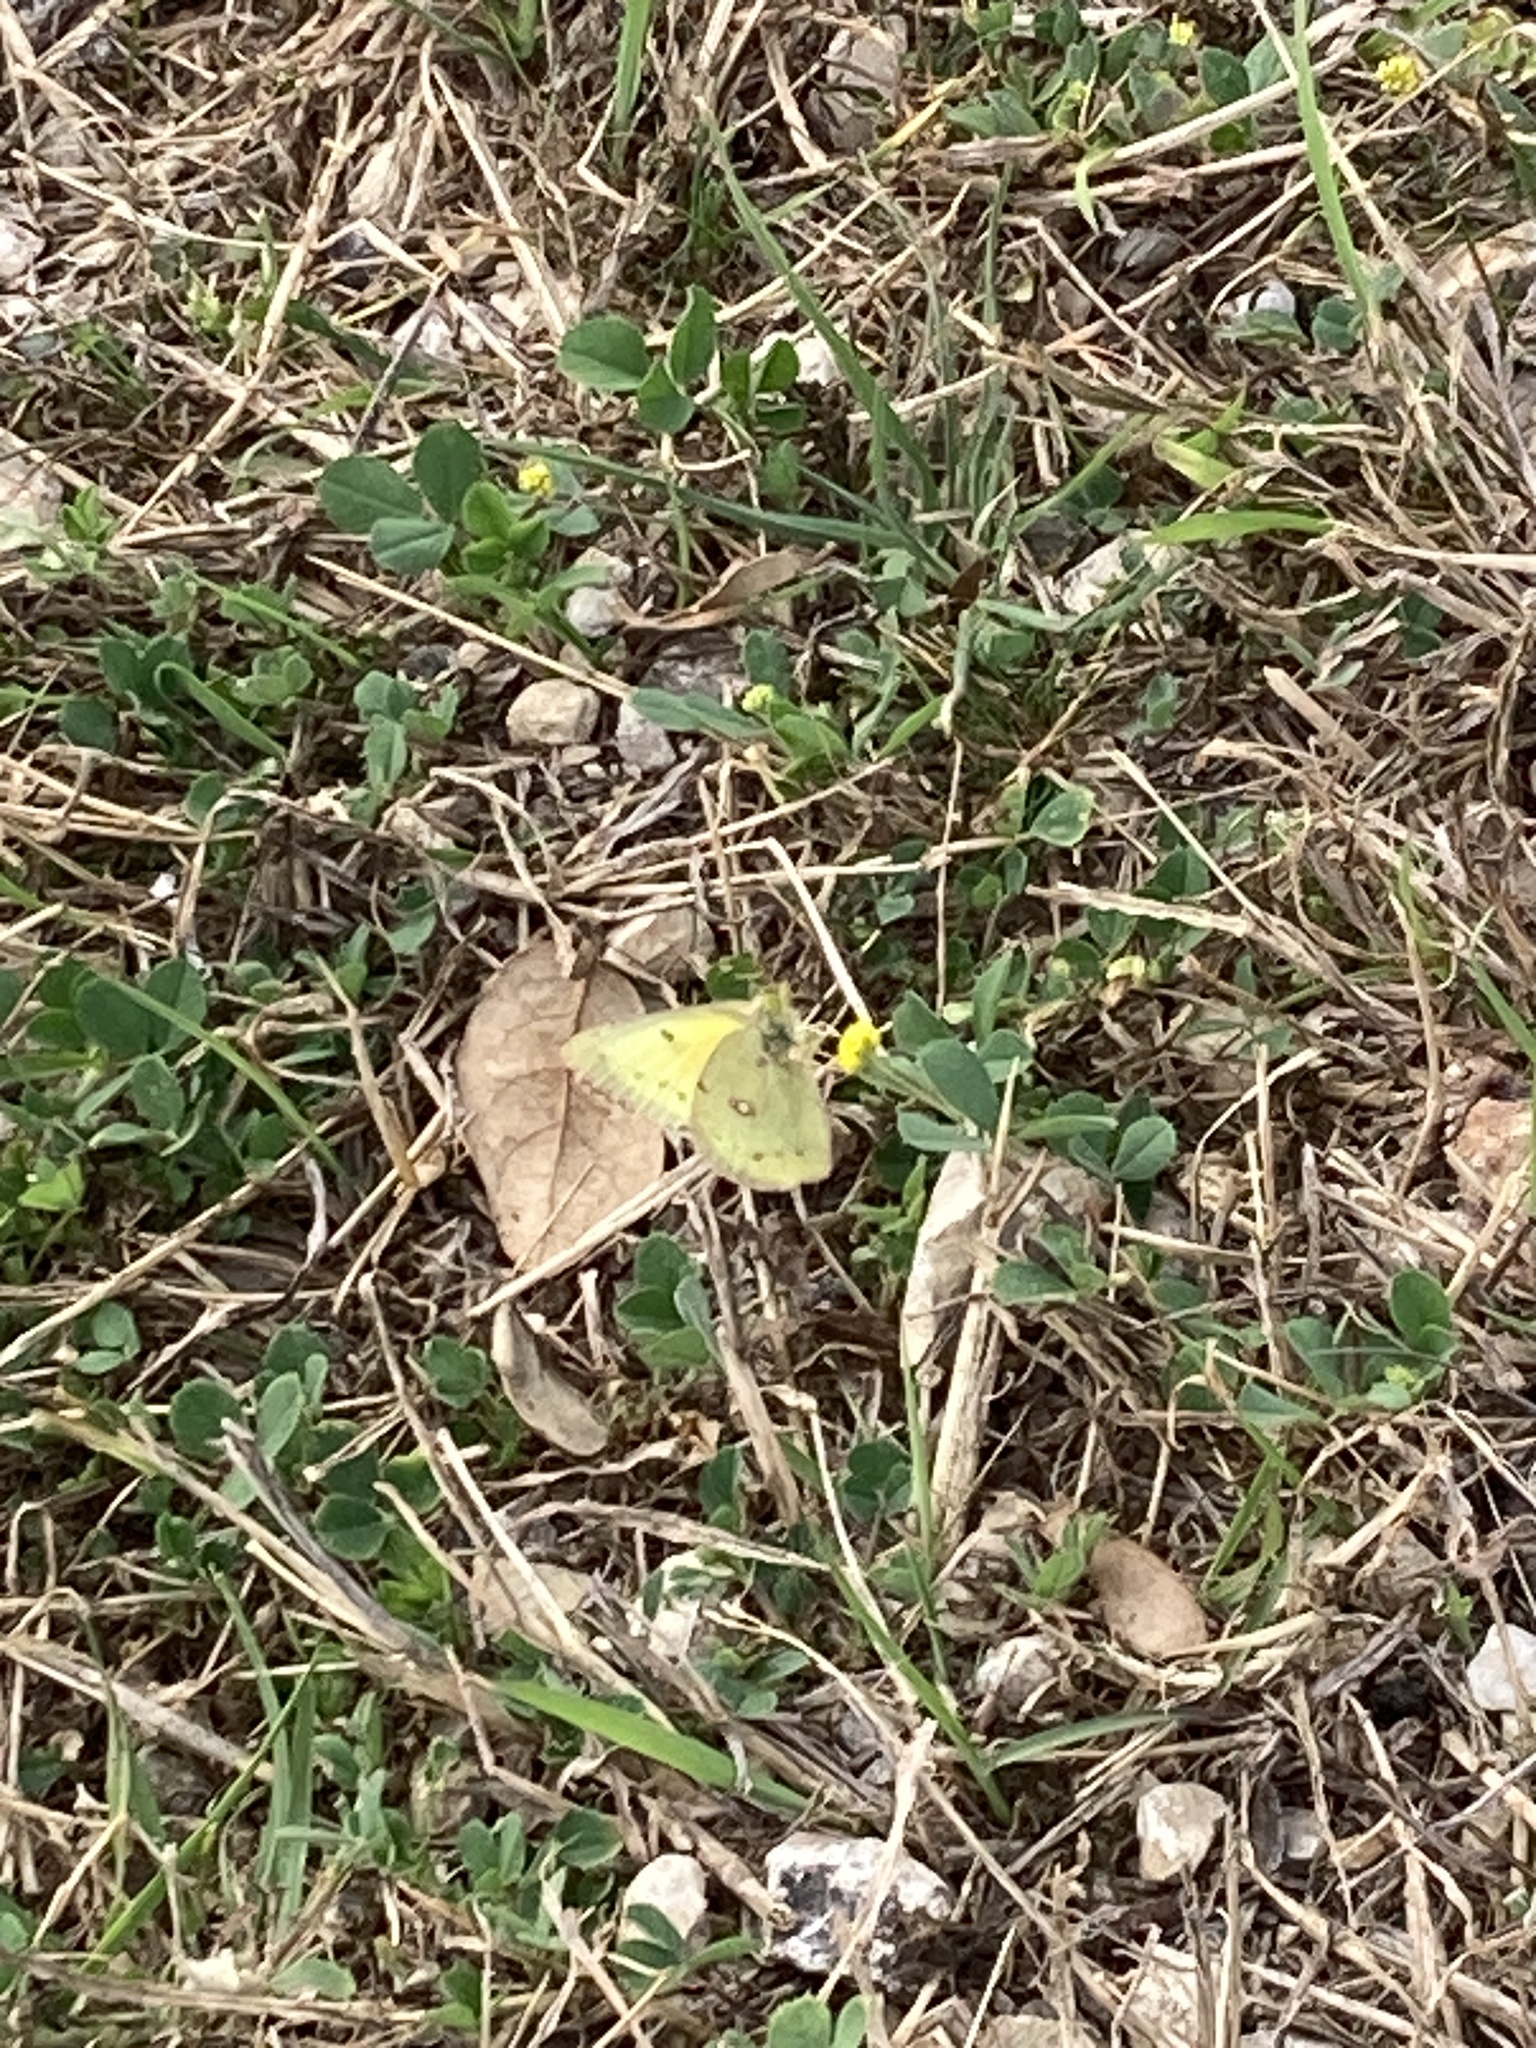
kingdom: Animalia
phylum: Arthropoda
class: Insecta
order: Lepidoptera
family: Pieridae
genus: Colias
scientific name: Colias eurytheme
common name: Alfalfa butterfly
